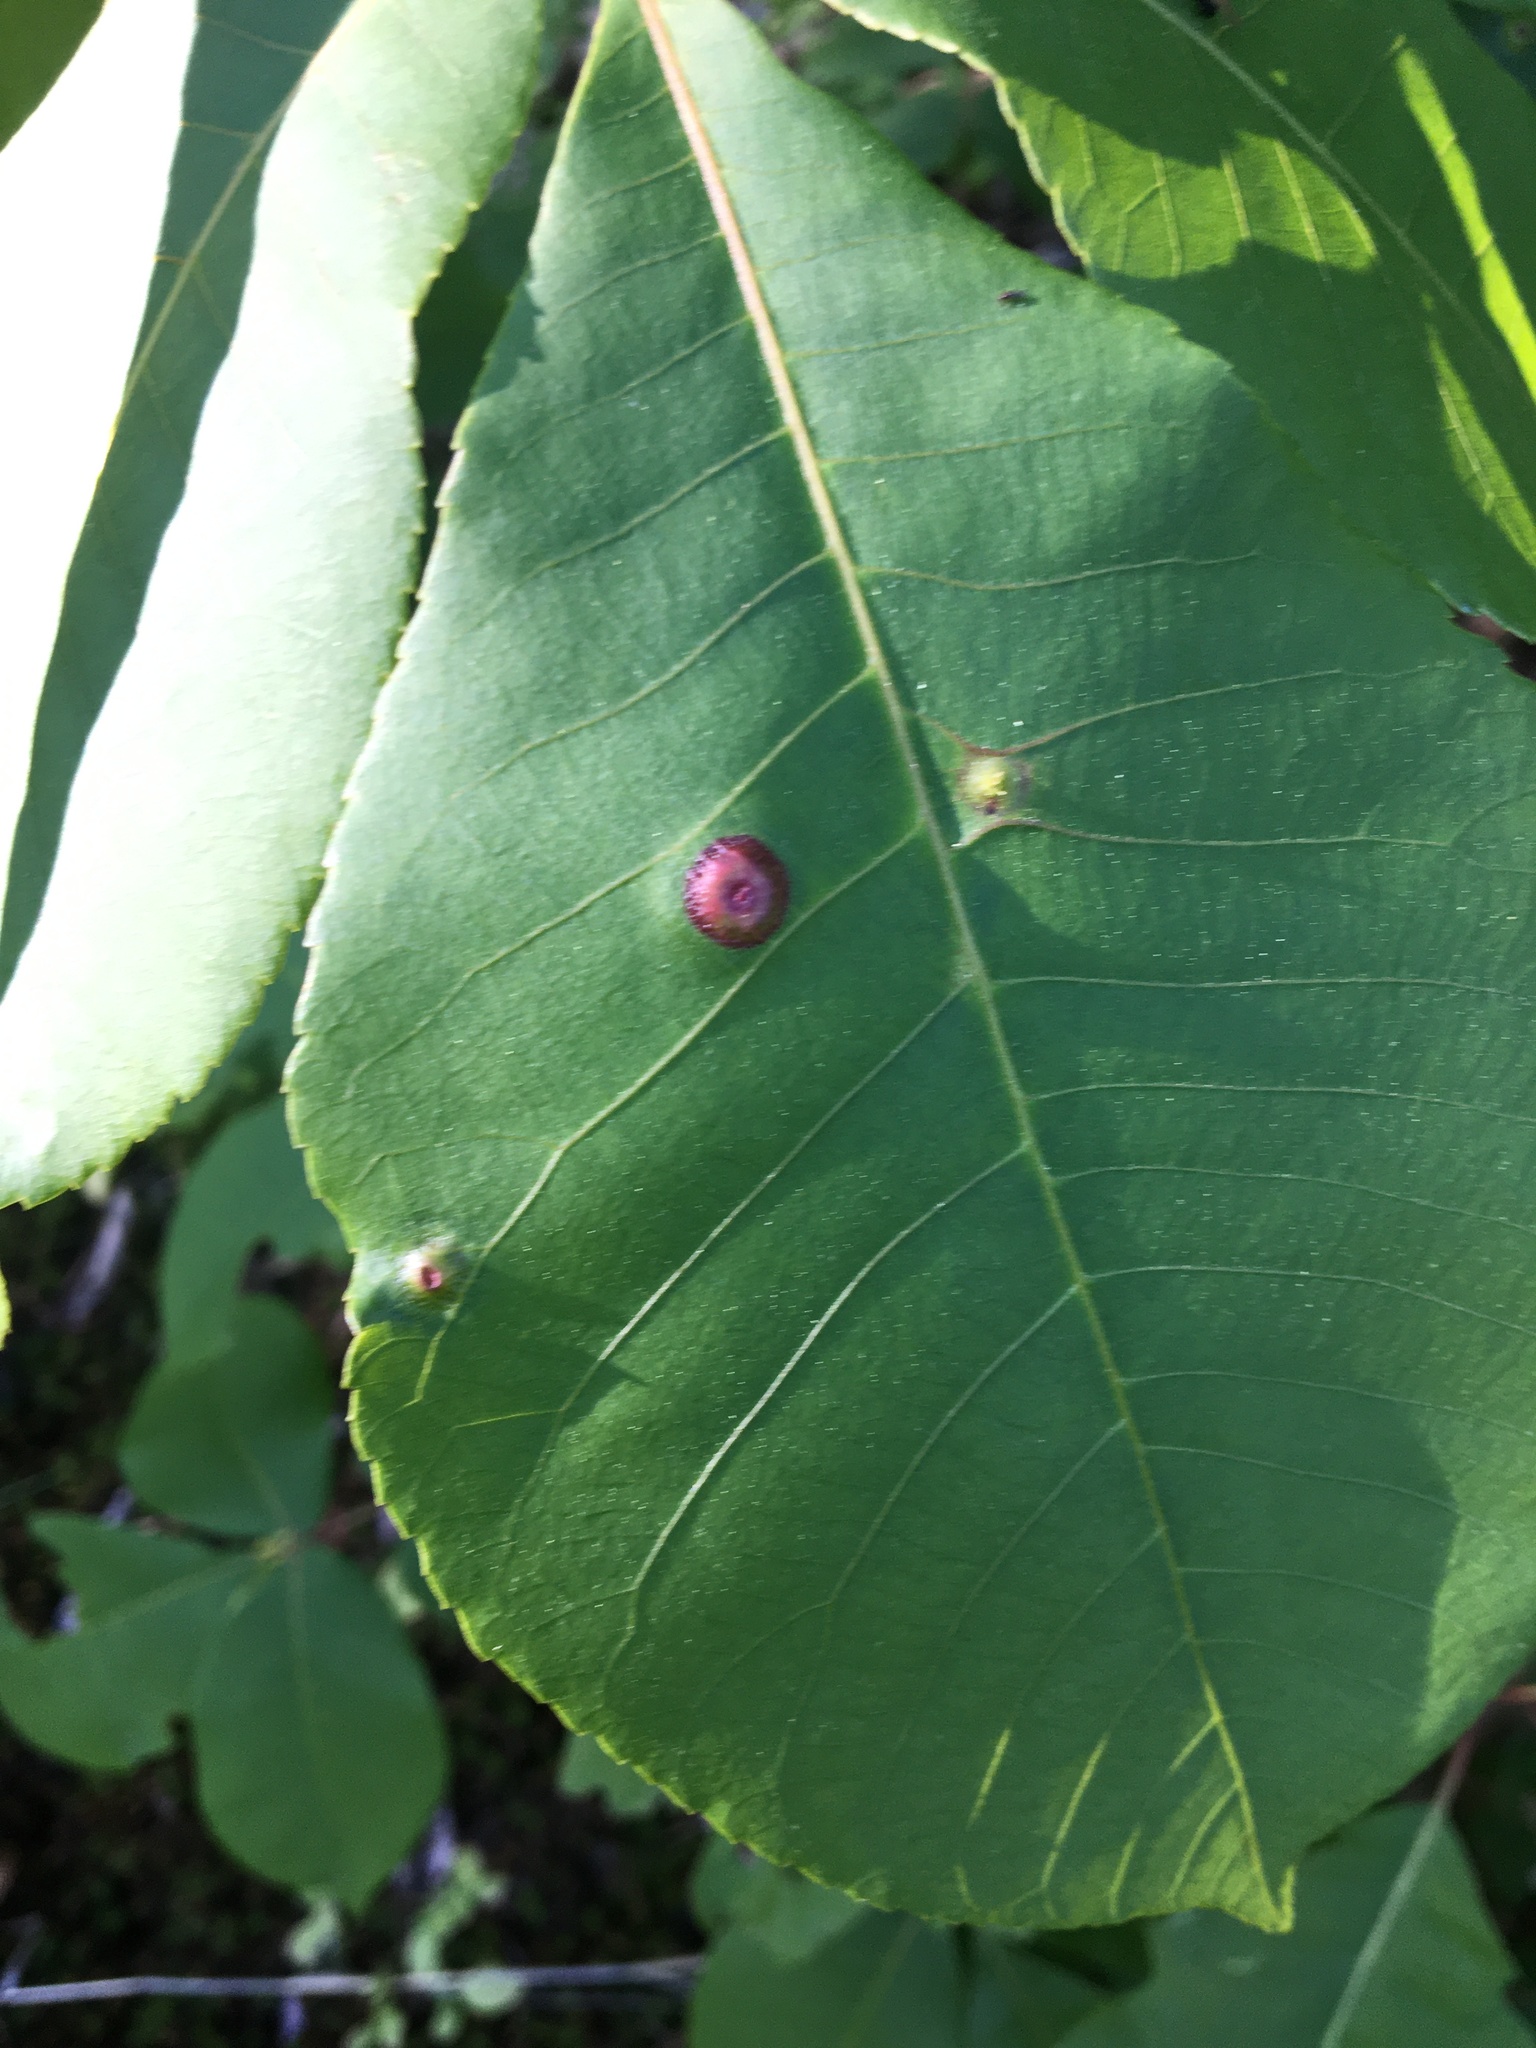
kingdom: Animalia
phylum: Arthropoda
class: Insecta
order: Hemiptera
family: Phylloxeridae
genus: Phylloxera
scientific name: Phylloxera foveola
